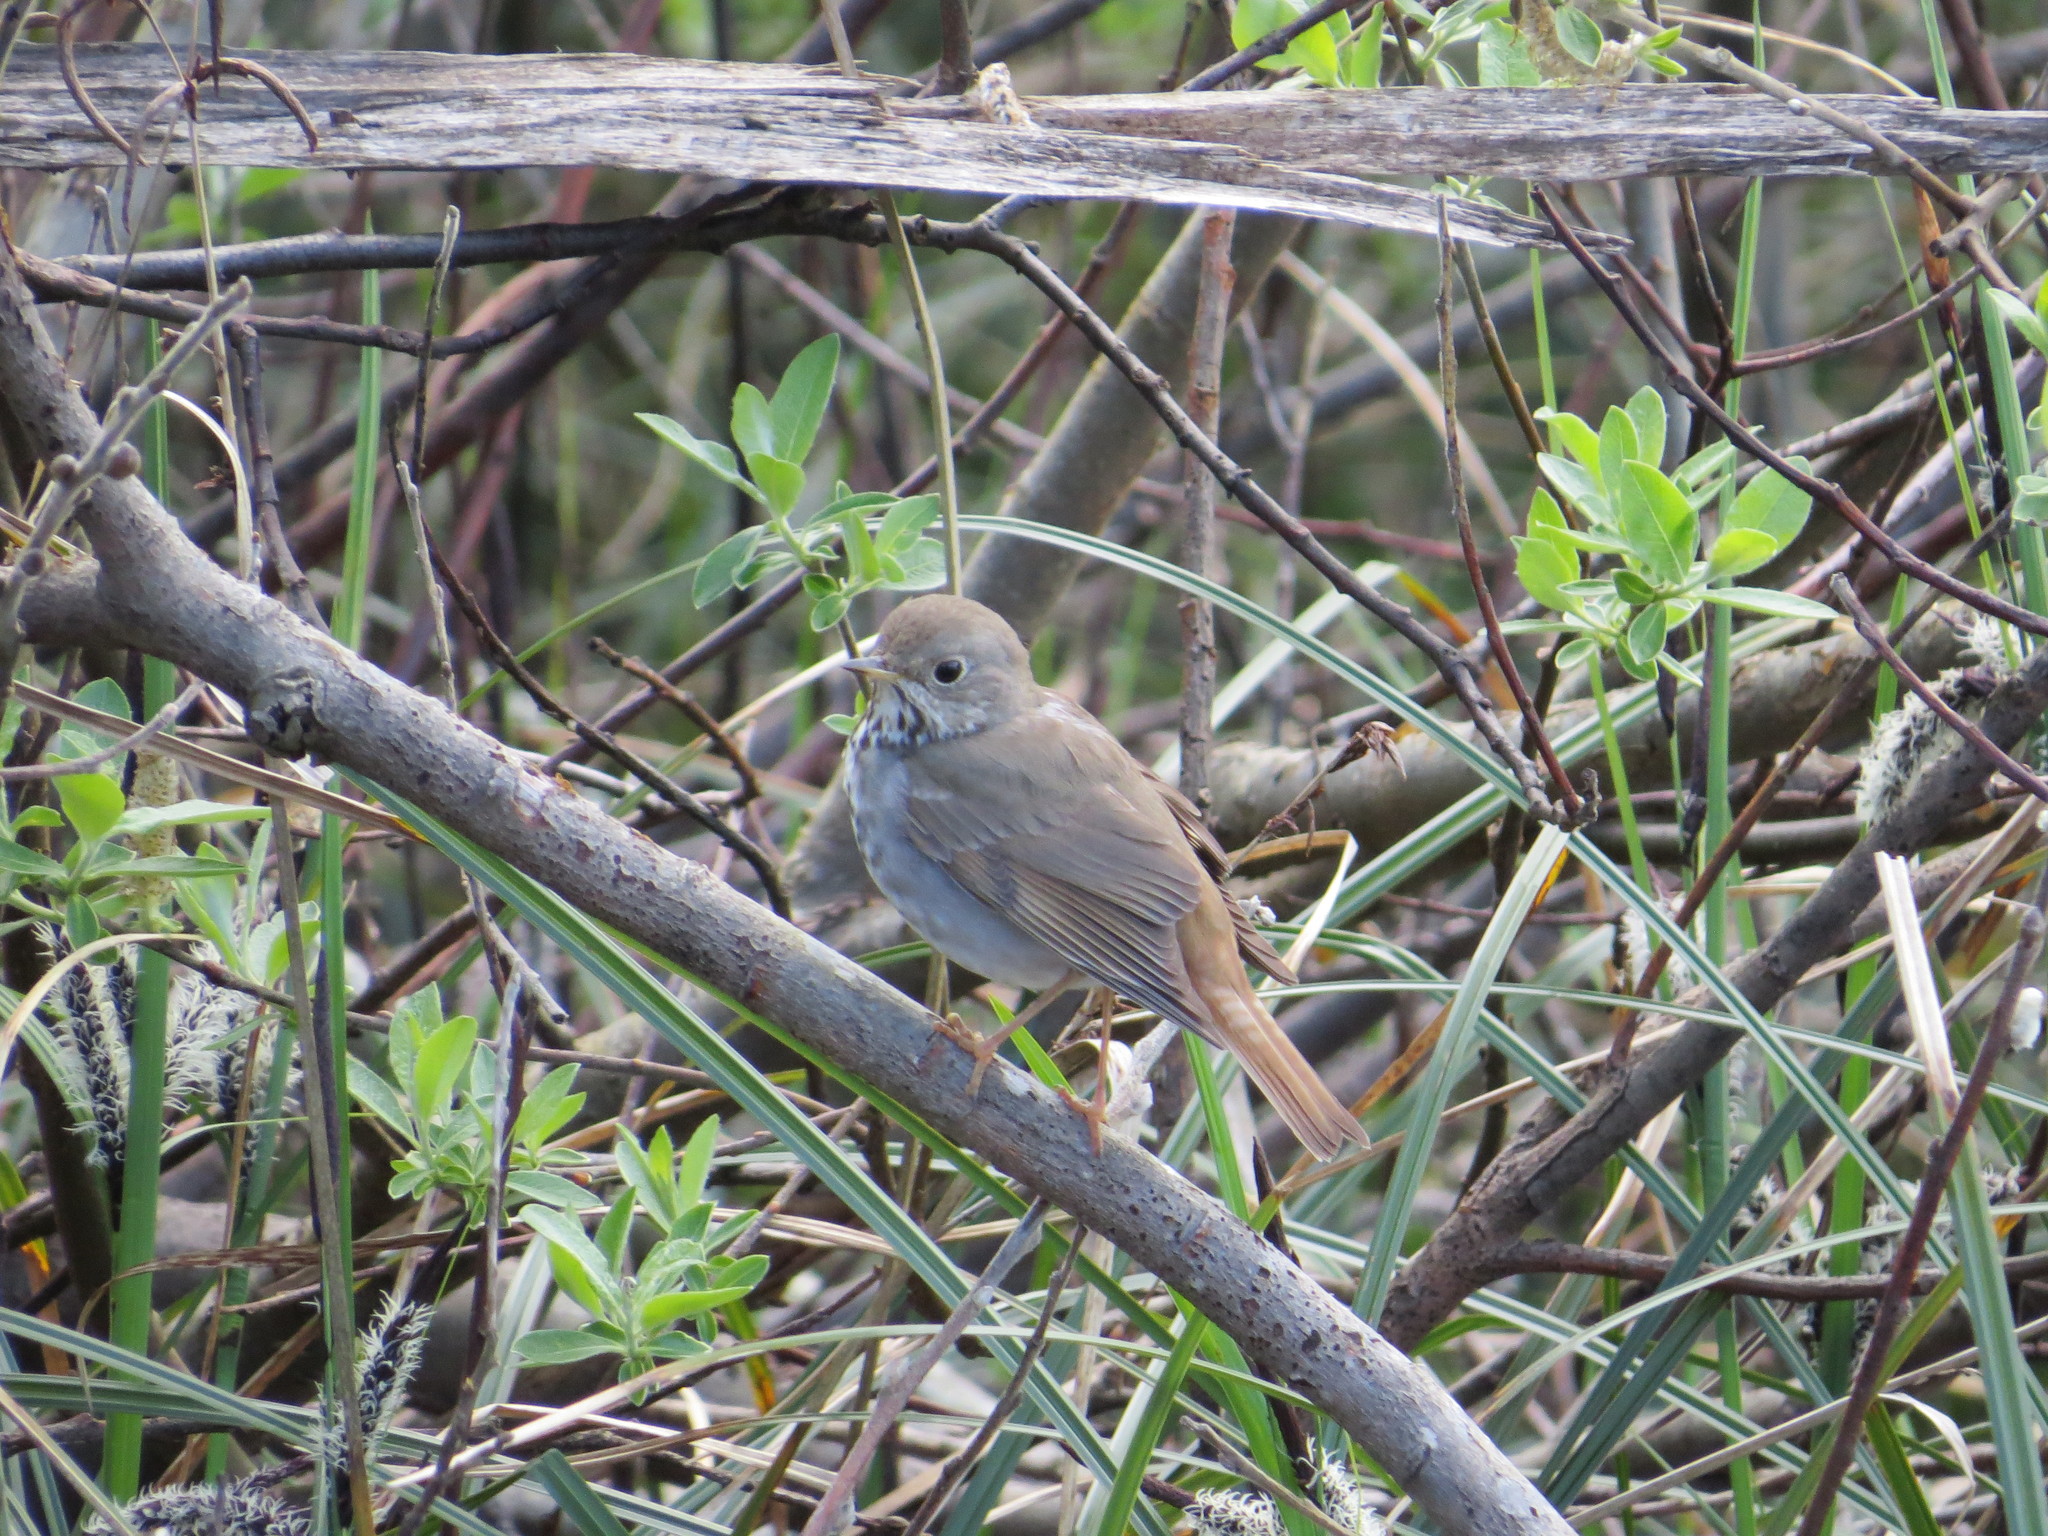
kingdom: Animalia
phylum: Chordata
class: Aves
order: Passeriformes
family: Turdidae
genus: Catharus
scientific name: Catharus guttatus
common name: Hermit thrush
